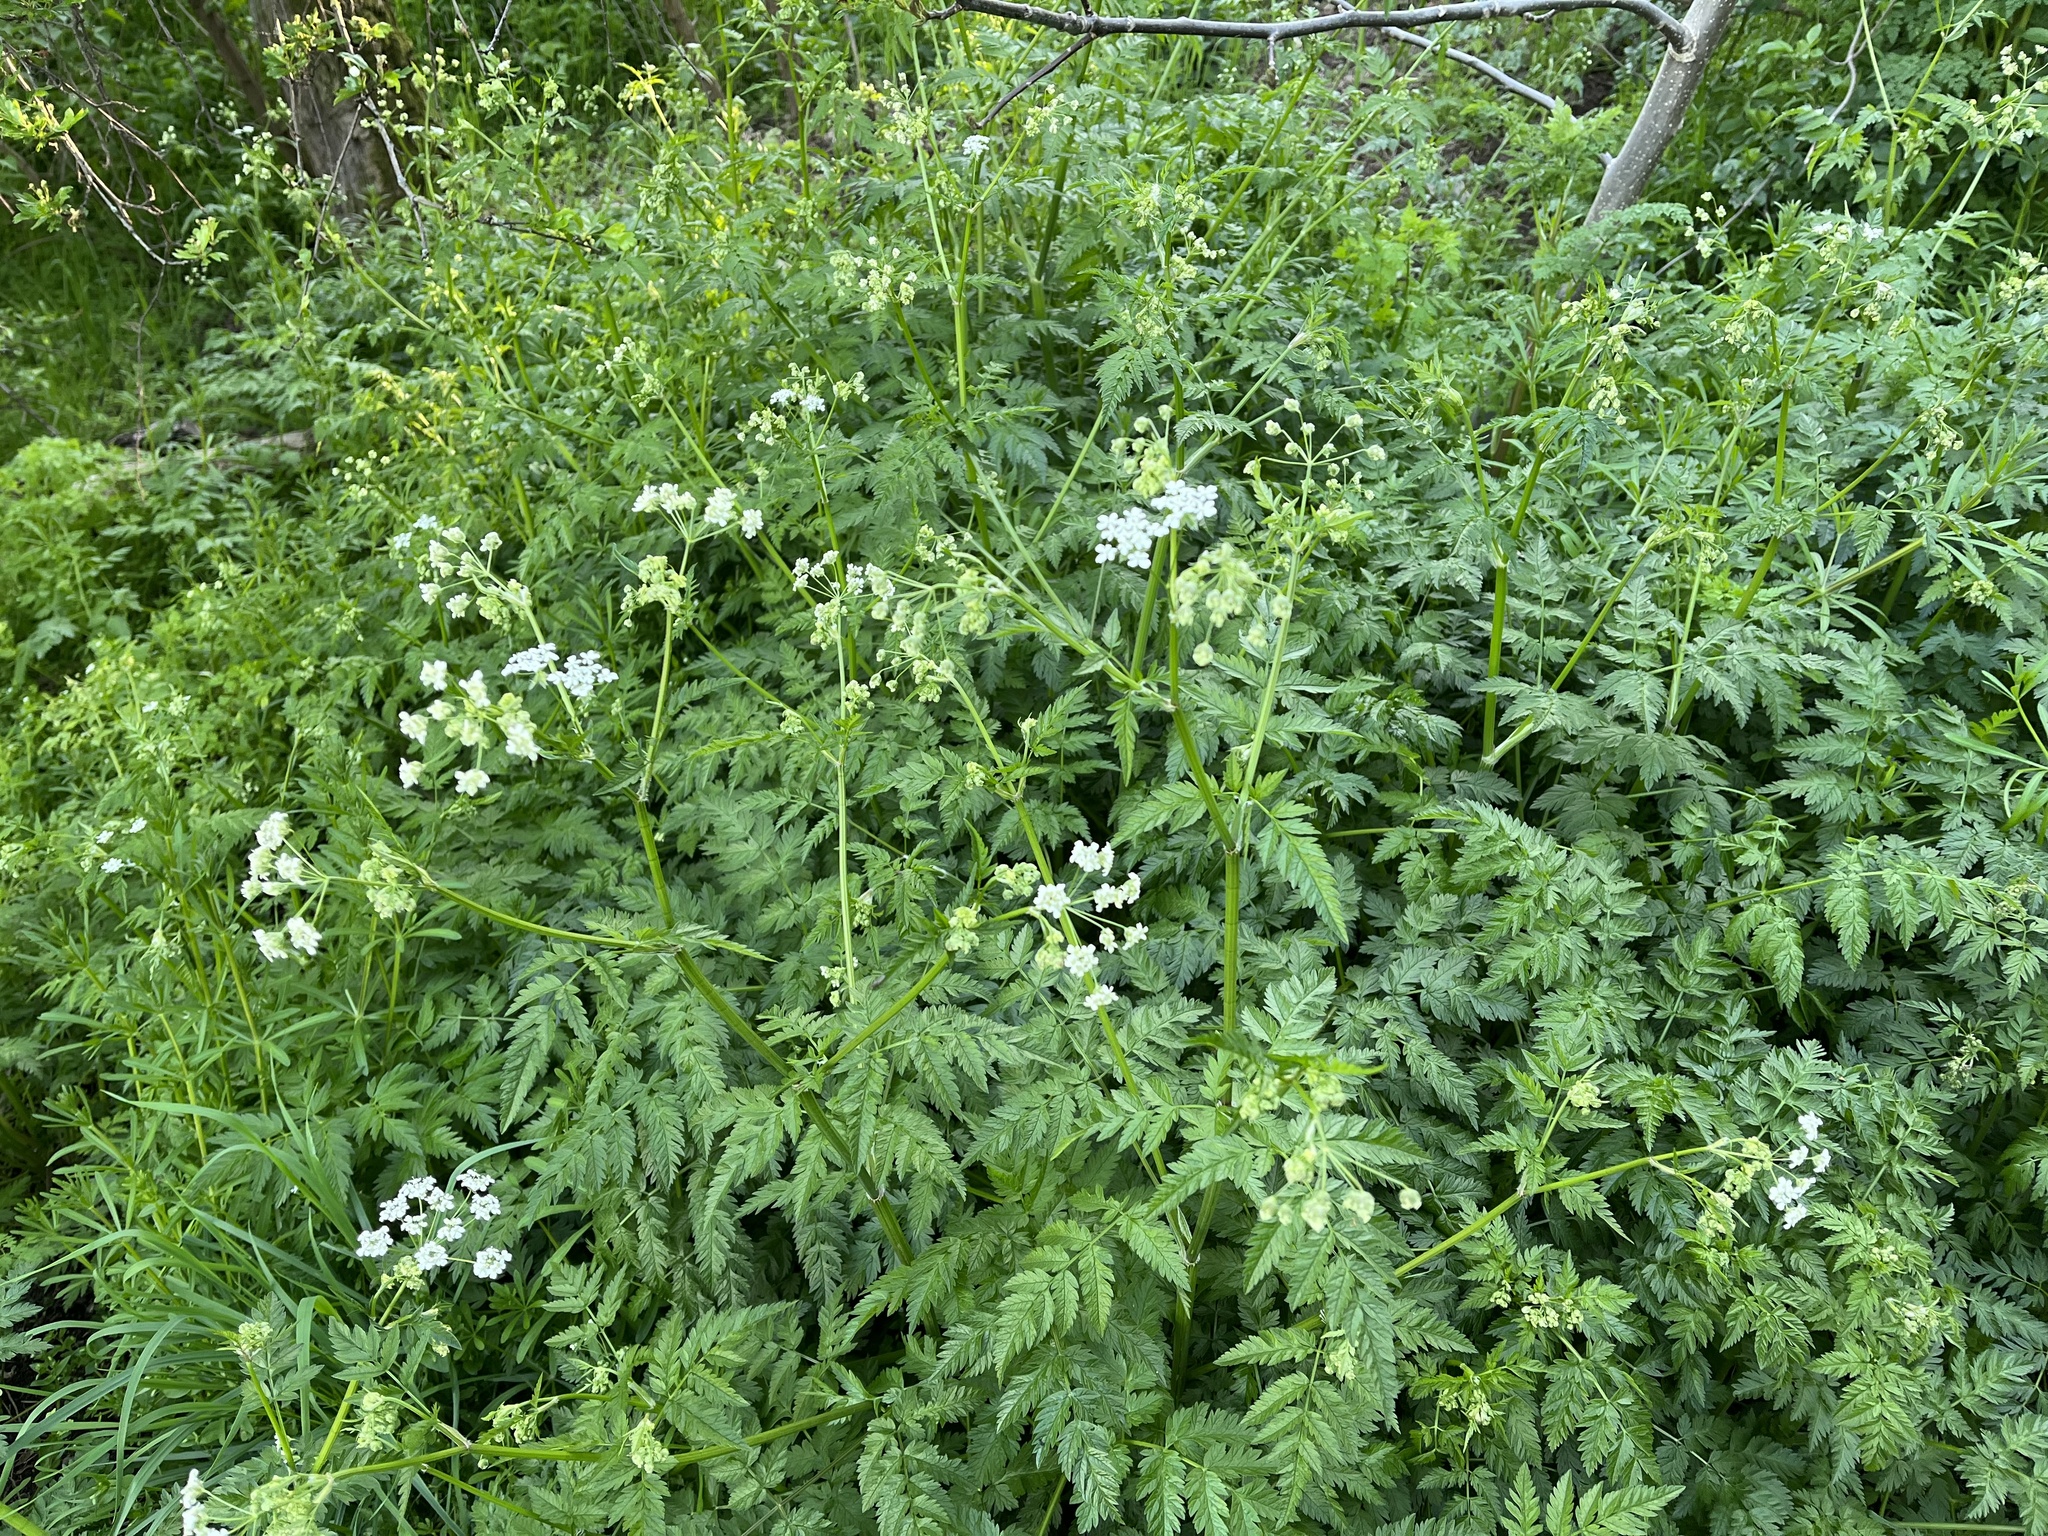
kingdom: Plantae
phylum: Tracheophyta
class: Magnoliopsida
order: Apiales
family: Apiaceae
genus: Anthriscus
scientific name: Anthriscus sylvestris
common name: Cow parsley
